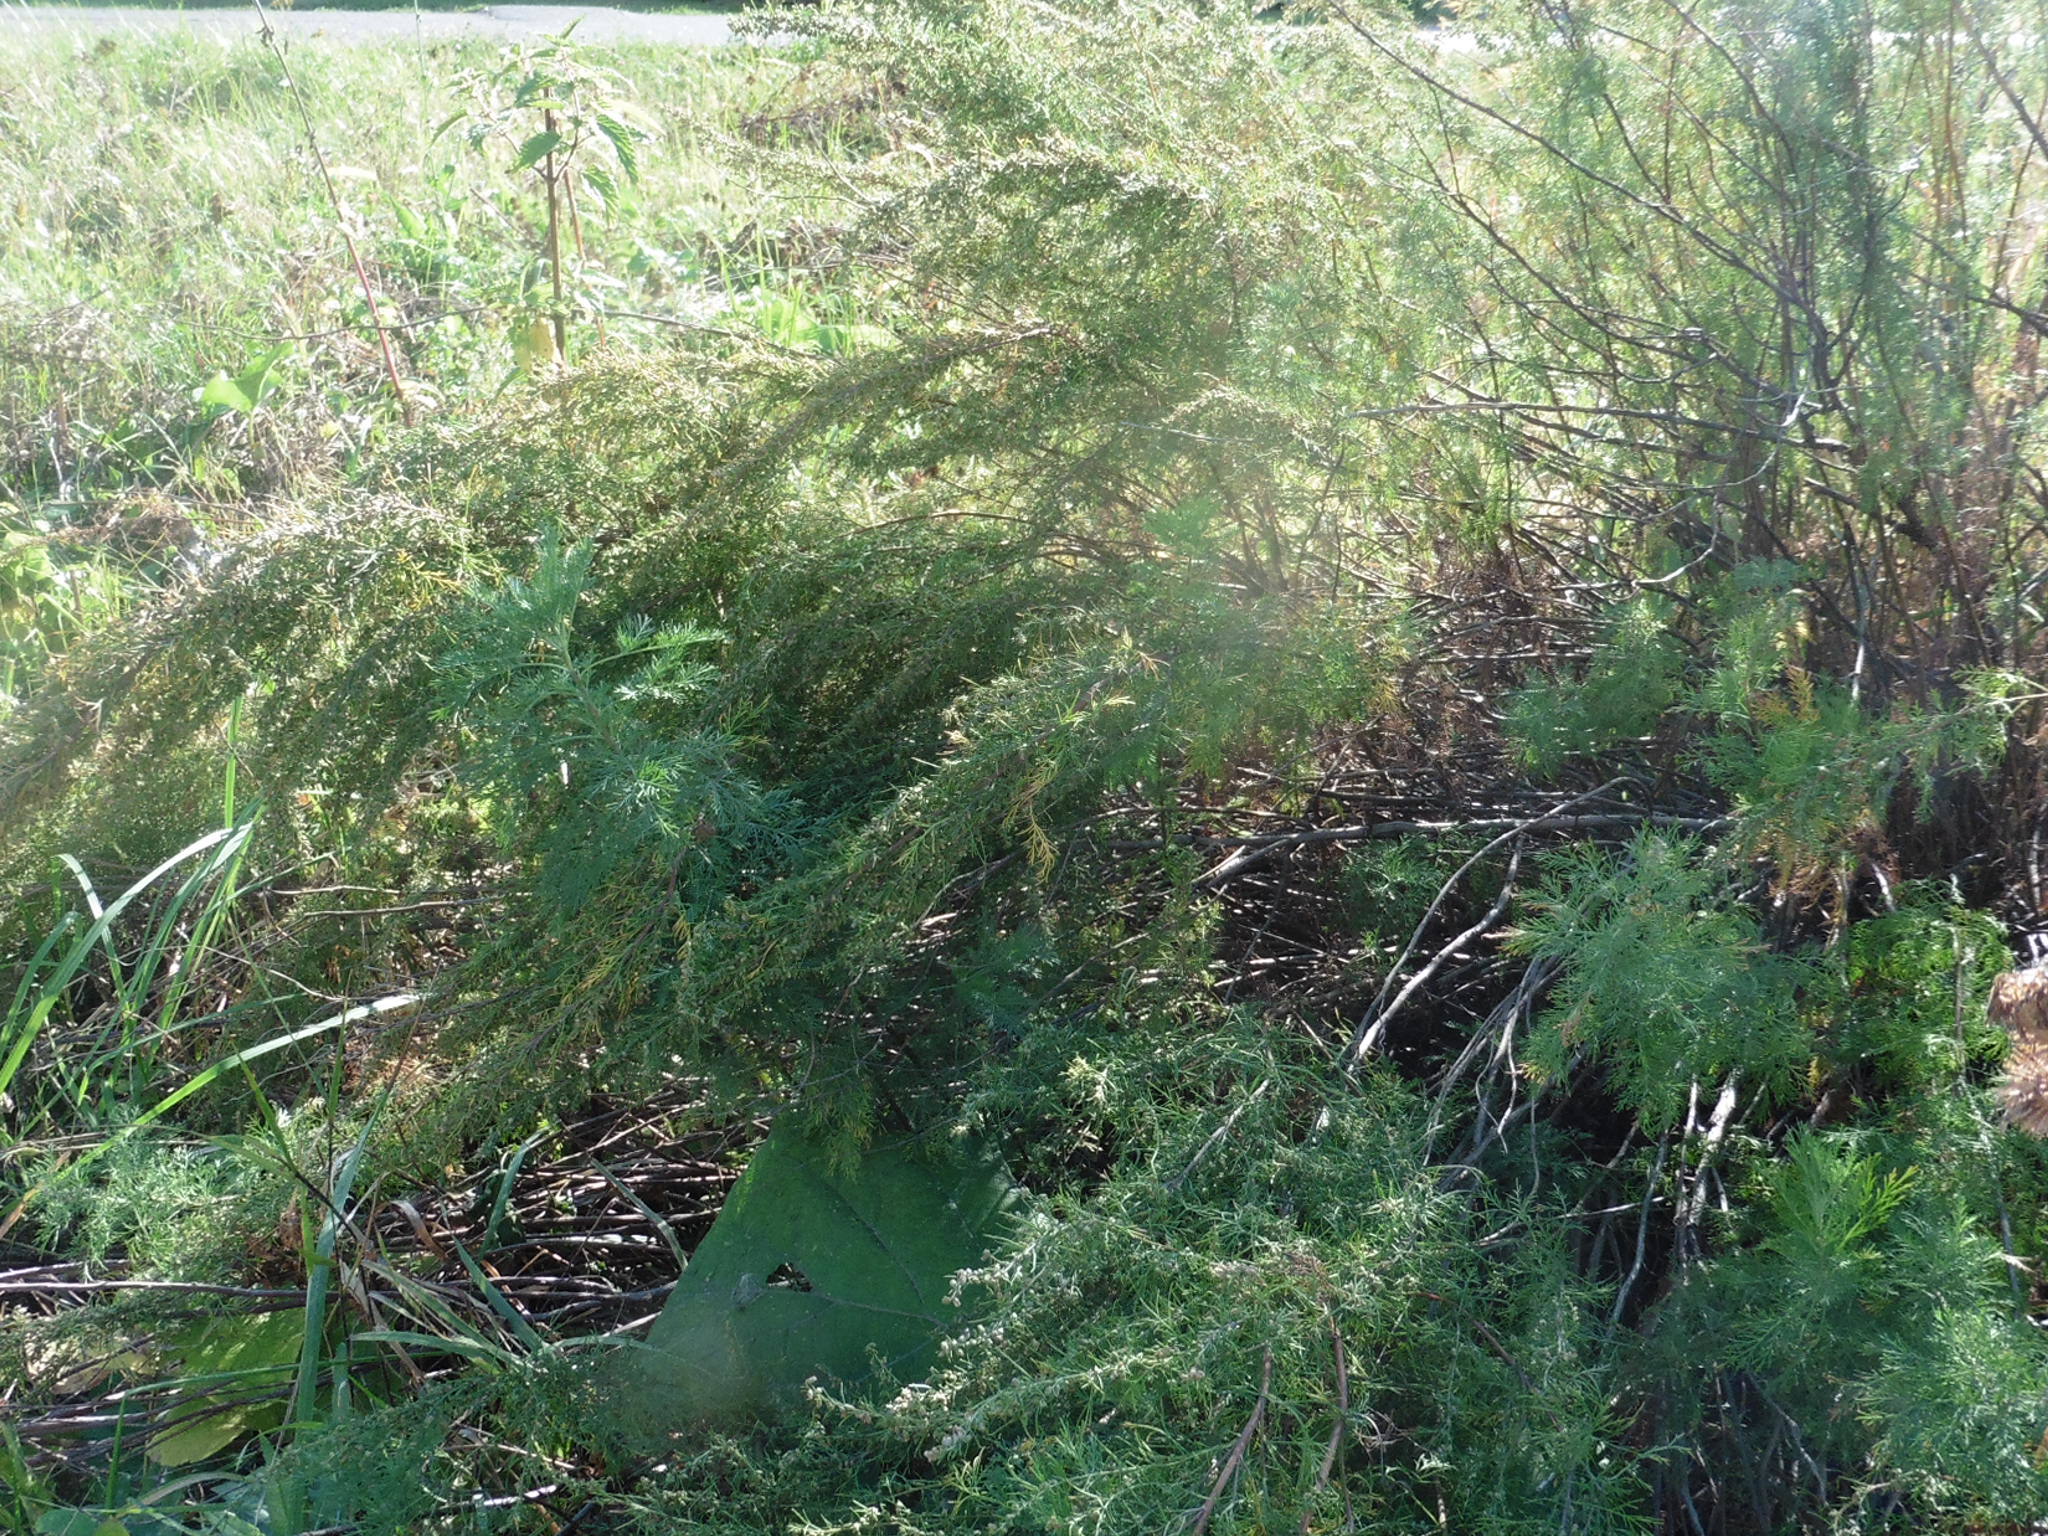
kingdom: Plantae
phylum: Tracheophyta
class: Magnoliopsida
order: Asterales
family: Asteraceae
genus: Artemisia
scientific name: Artemisia abrotanum
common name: Southernwood
